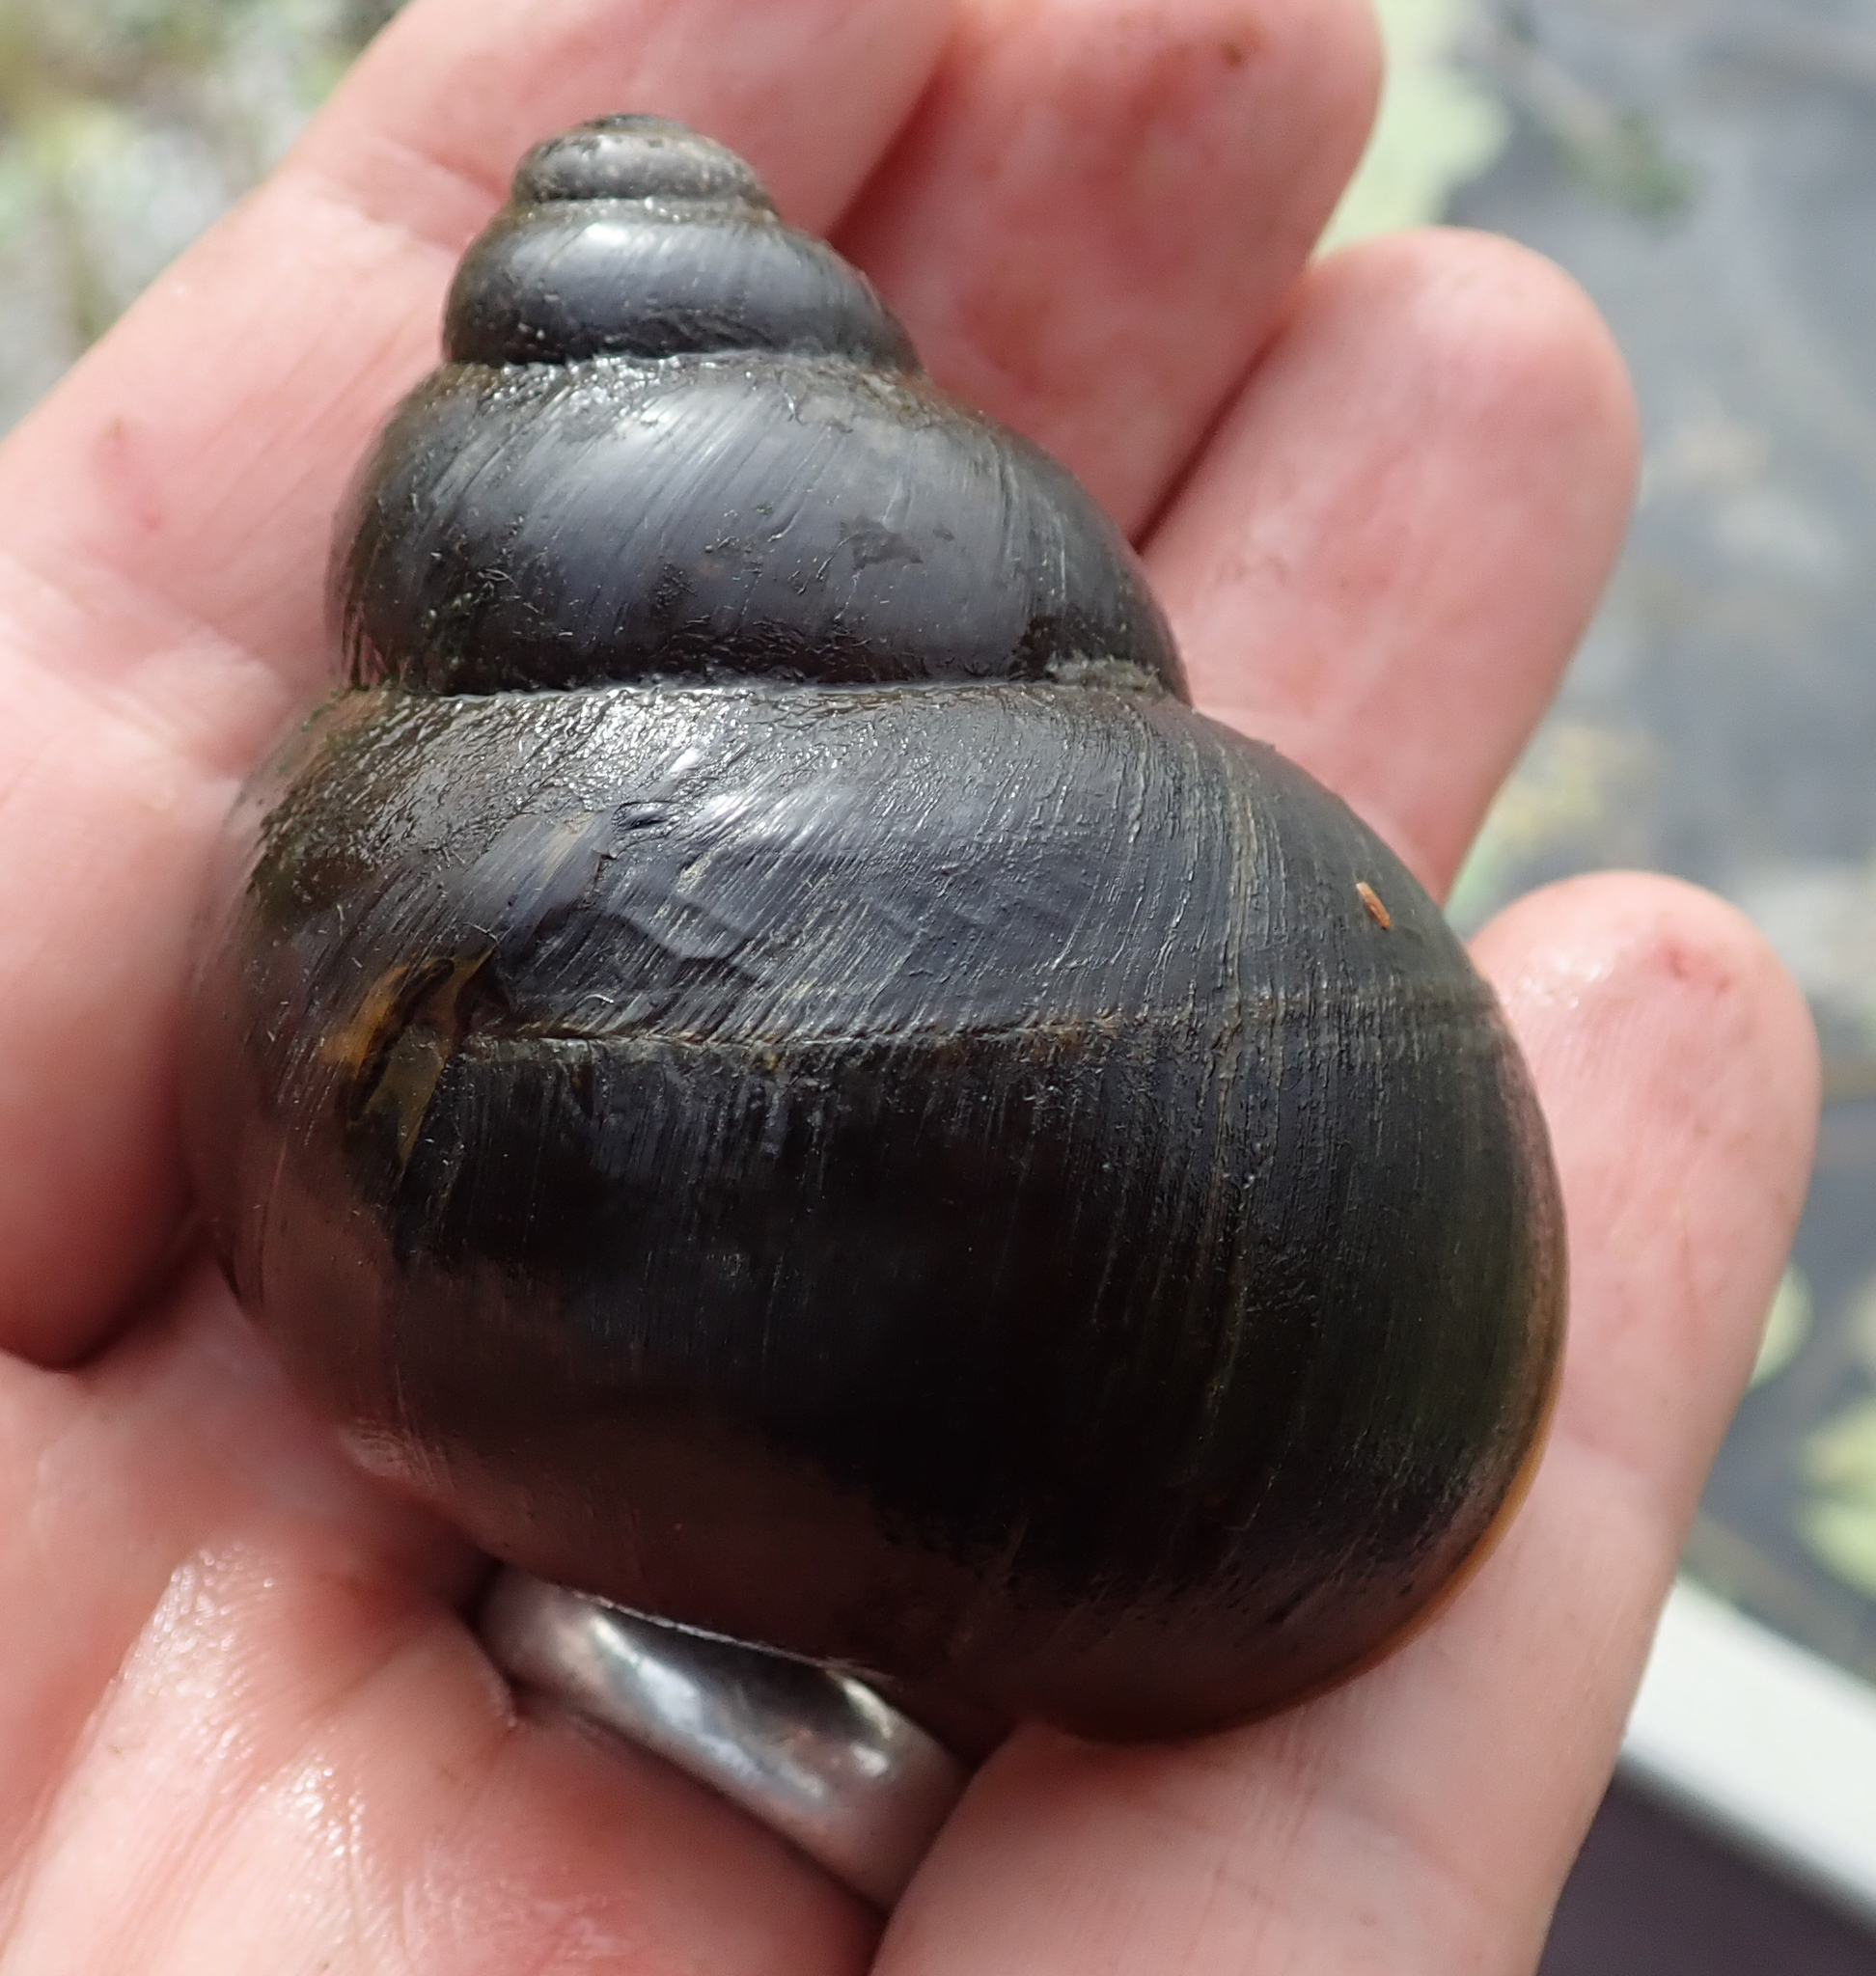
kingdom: Animalia
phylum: Mollusca
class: Gastropoda
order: Architaenioglossa
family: Ampullariidae
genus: Lanistes
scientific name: Lanistes ovum
